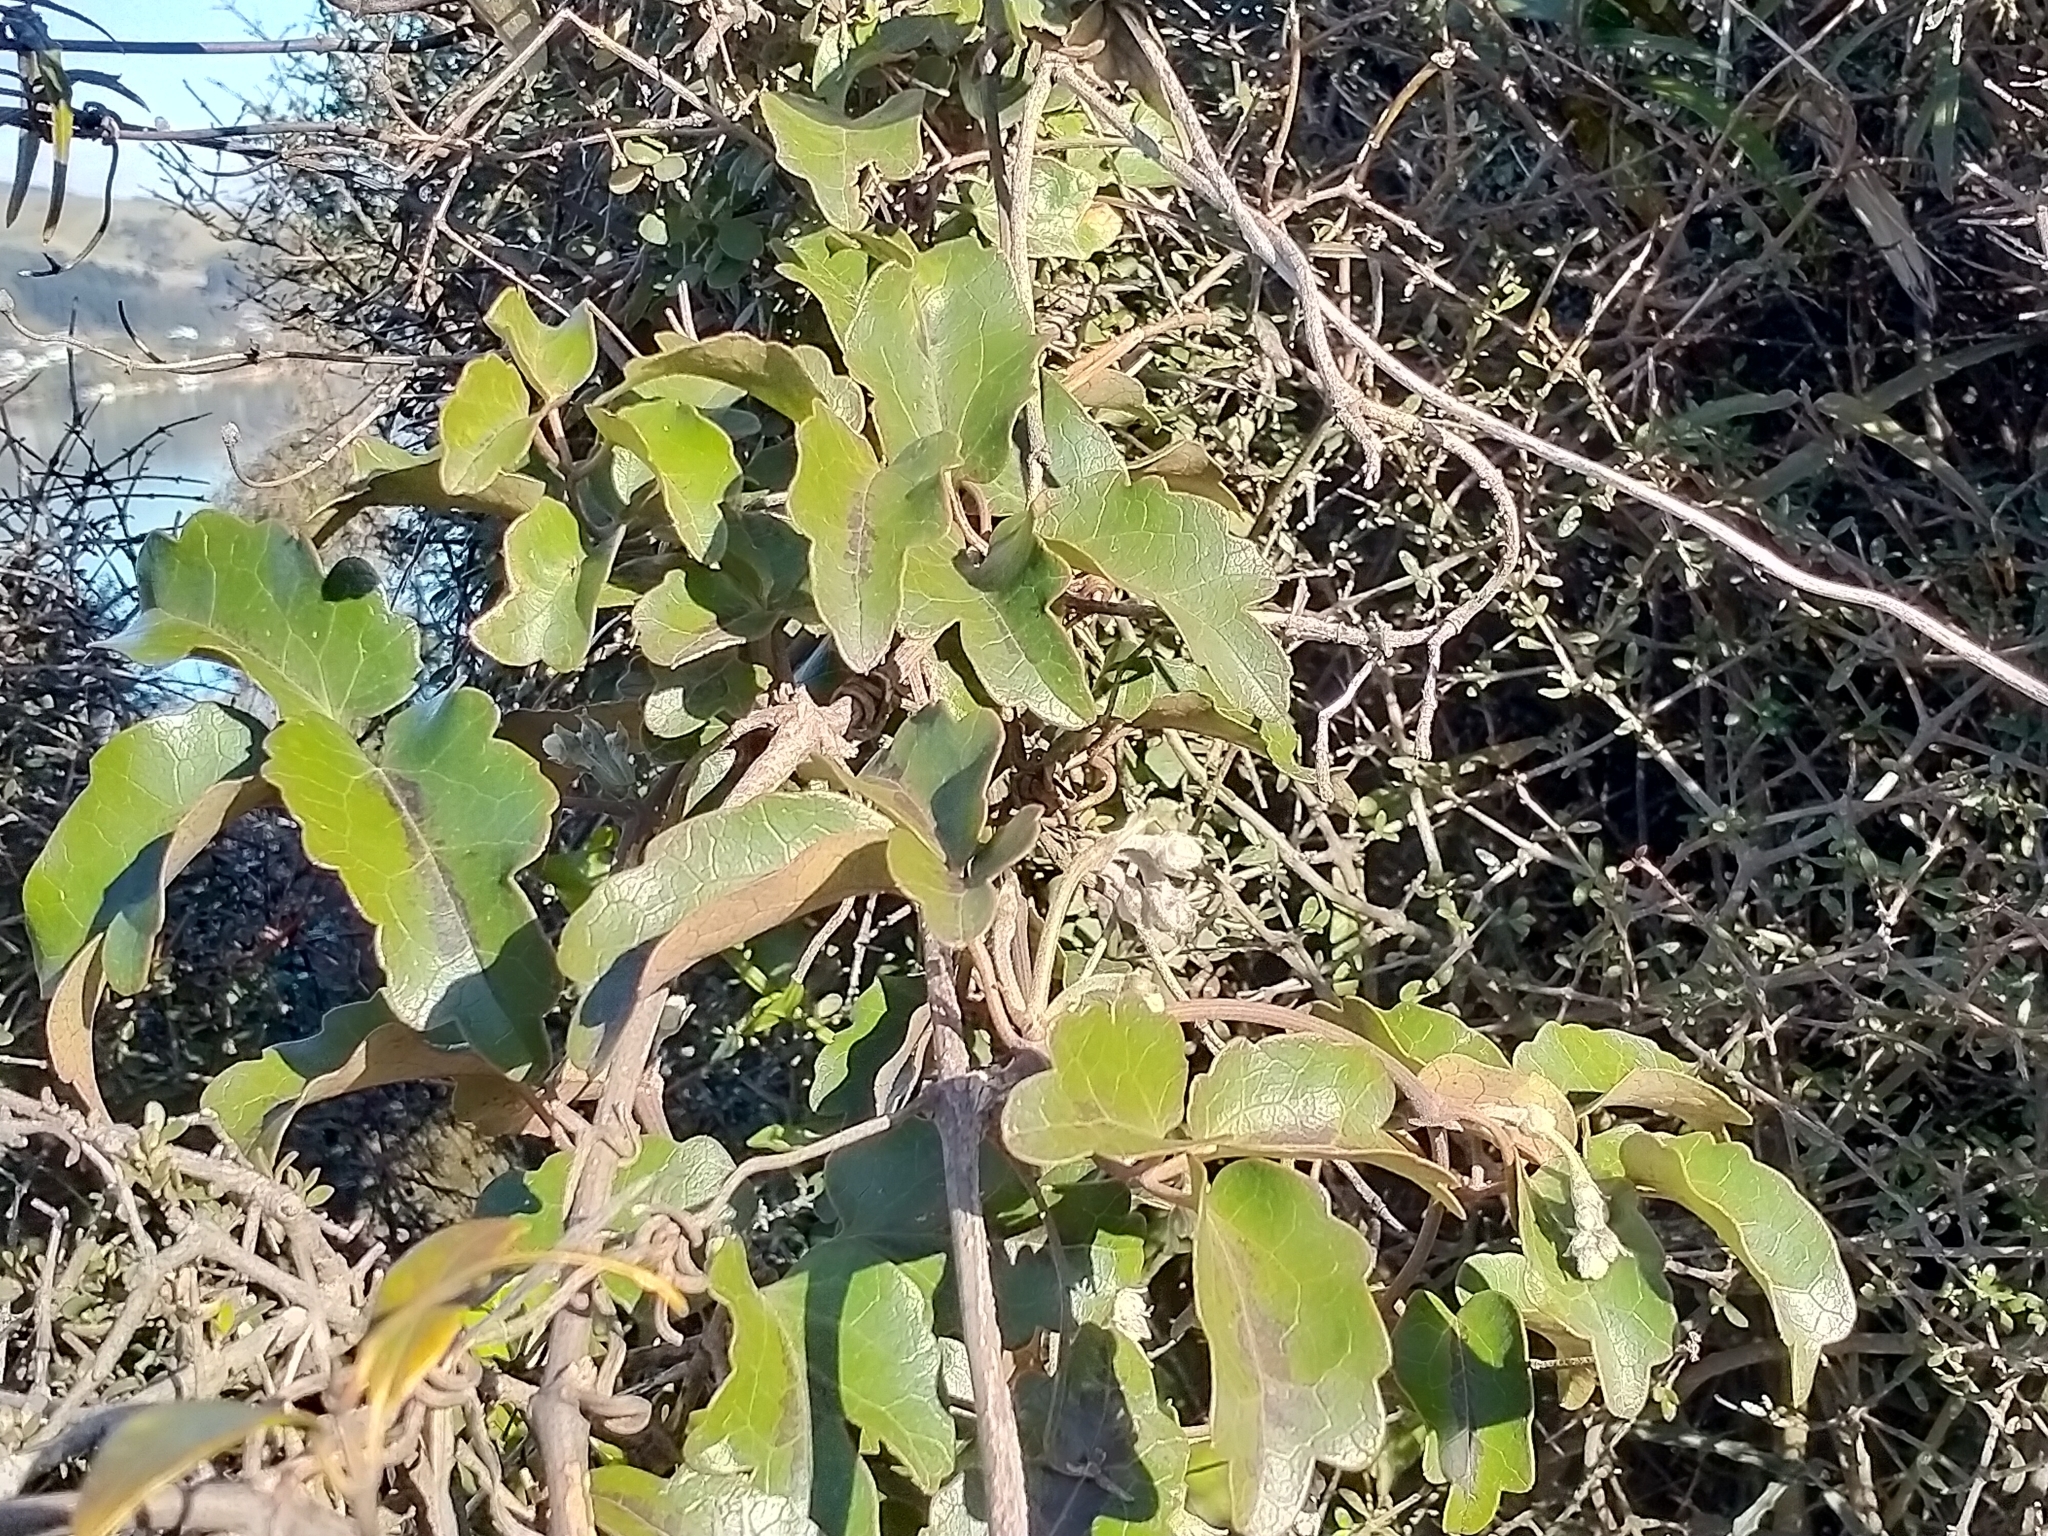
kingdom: Plantae
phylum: Tracheophyta
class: Magnoliopsida
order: Ranunculales
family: Ranunculaceae
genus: Clematis
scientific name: Clematis paniculata
